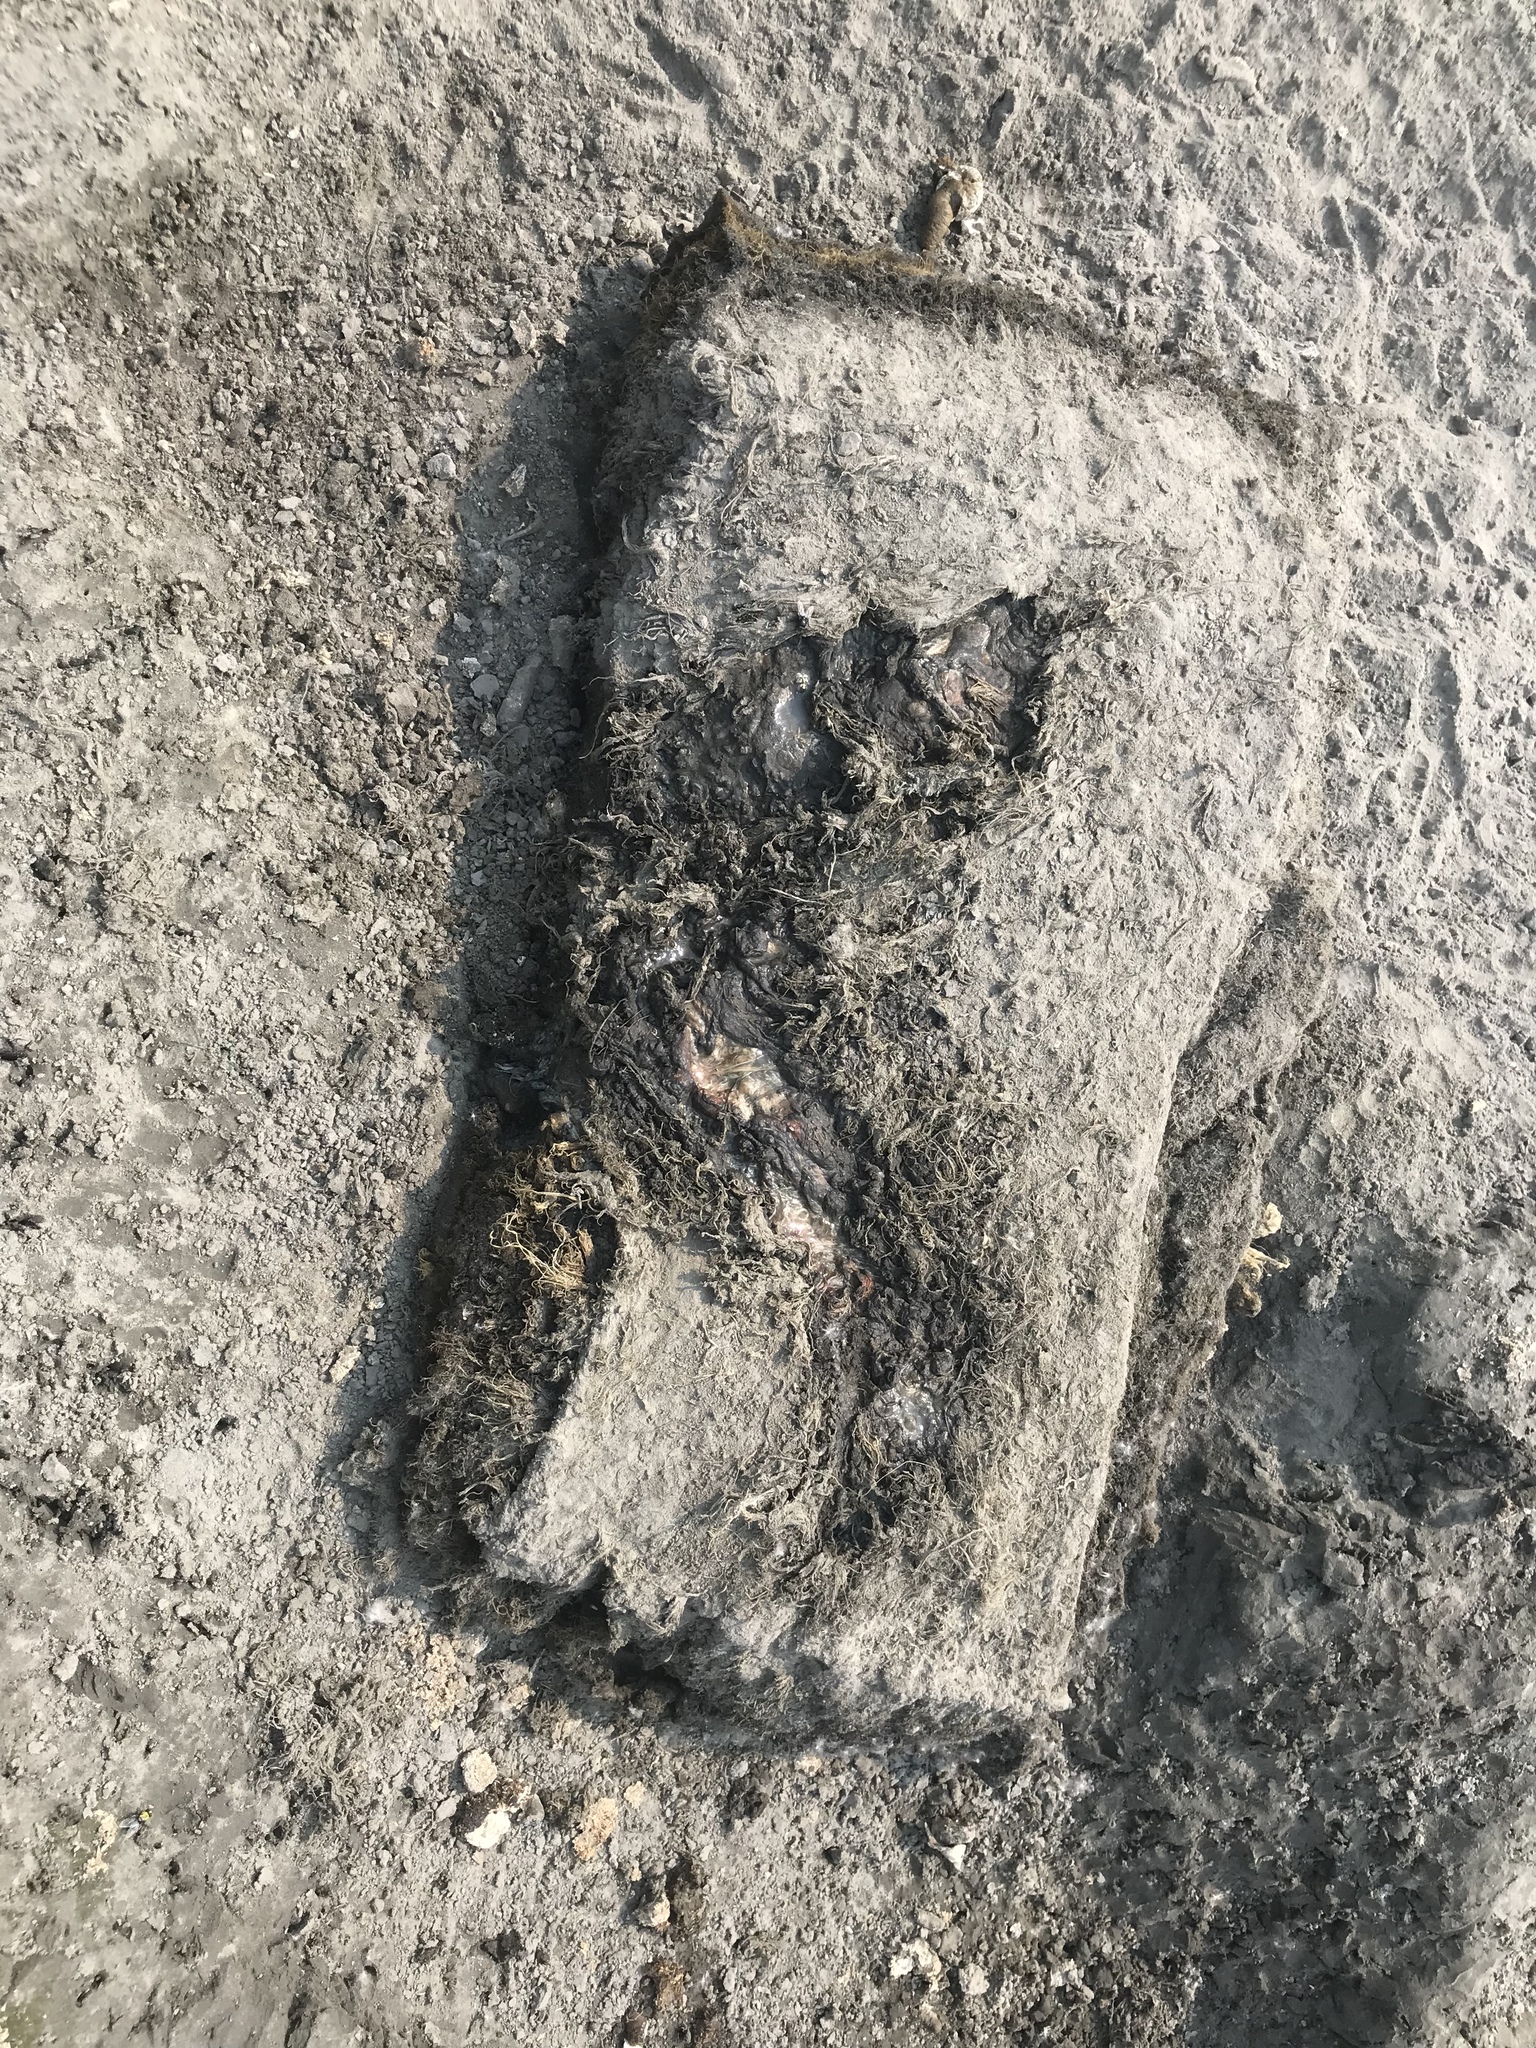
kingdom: Animalia
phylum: Chordata
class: Mammalia
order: Cetacea
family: Eschrichtiidae
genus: Eschrichtius
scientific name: Eschrichtius robustus
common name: Gray whale
